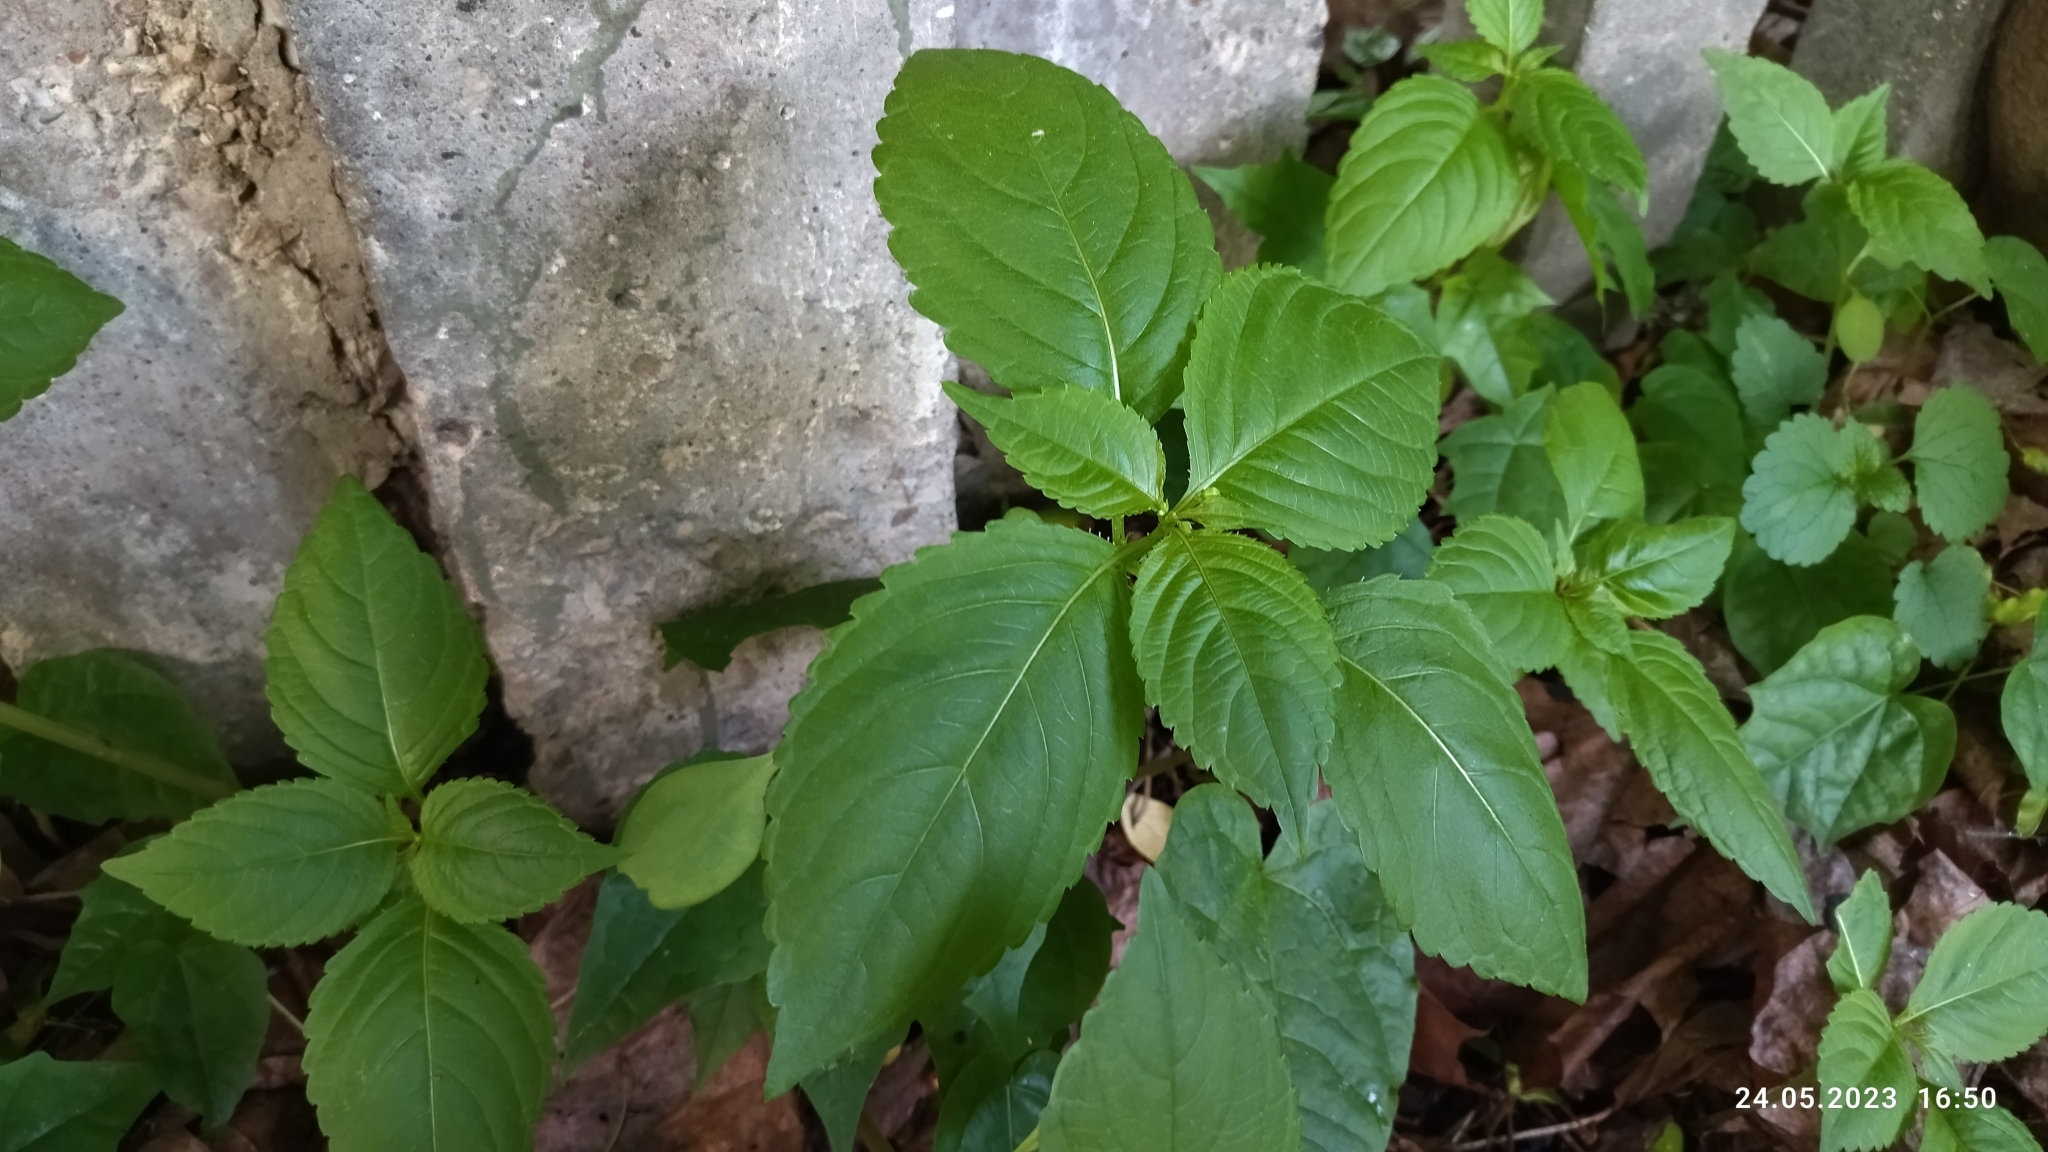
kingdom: Plantae
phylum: Tracheophyta
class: Magnoliopsida
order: Ericales
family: Balsaminaceae
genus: Impatiens
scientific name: Impatiens parviflora
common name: Small balsam
